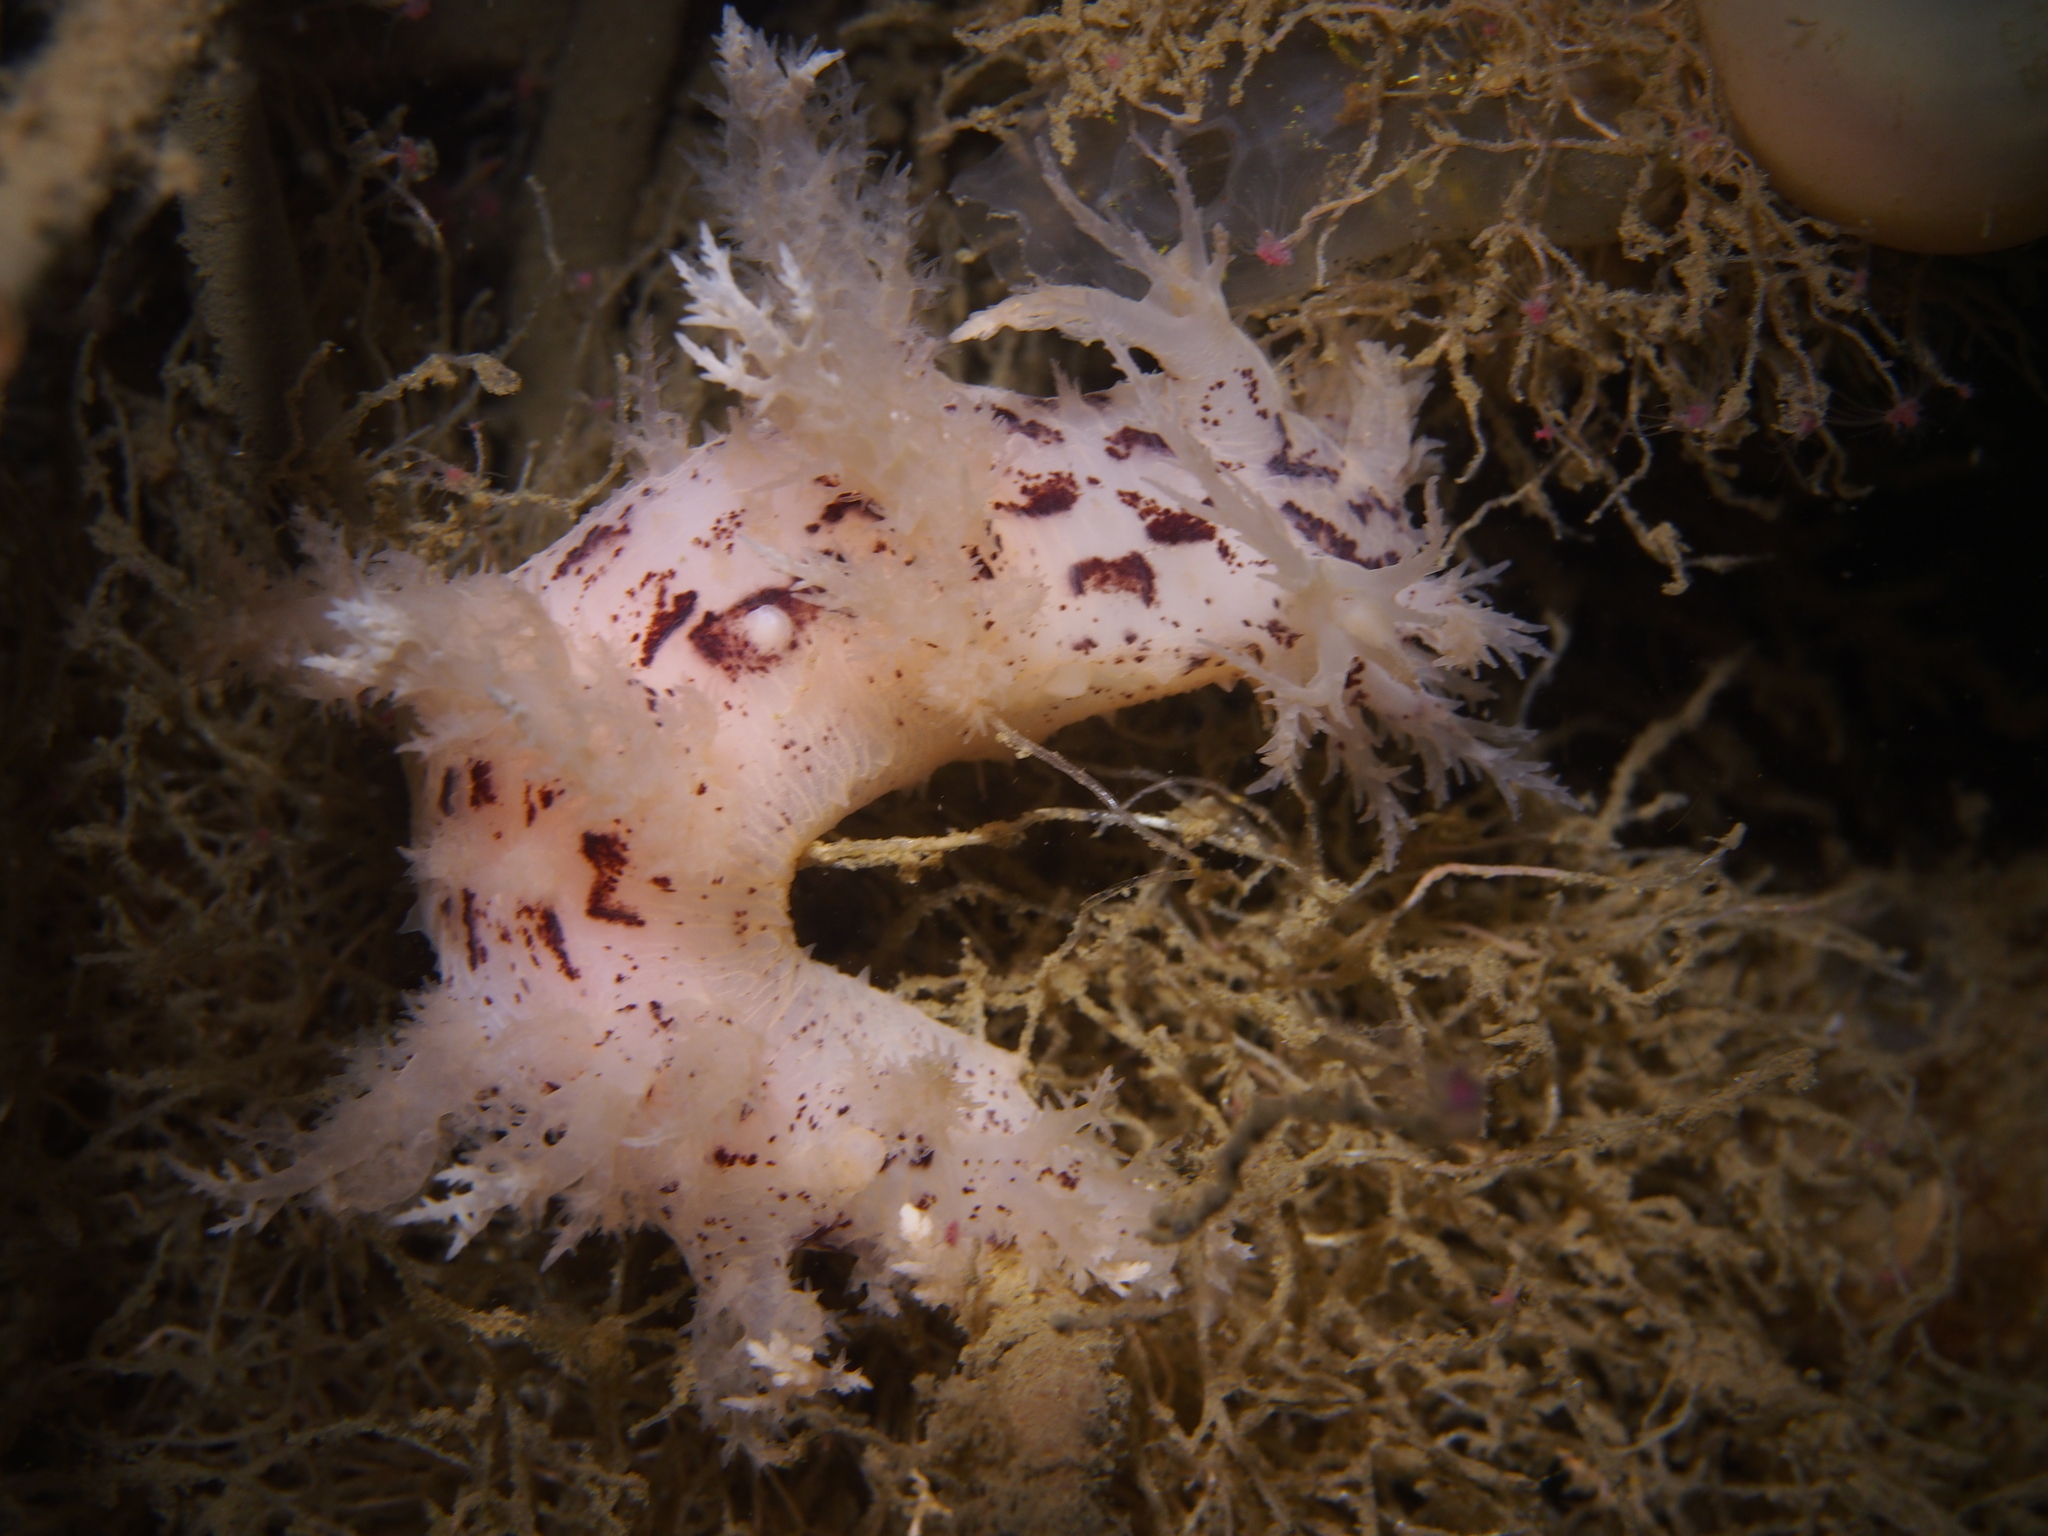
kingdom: Animalia
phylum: Mollusca
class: Gastropoda
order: Nudibranchia
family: Dendronotidae
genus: Dendronotus
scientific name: Dendronotus europaeus
